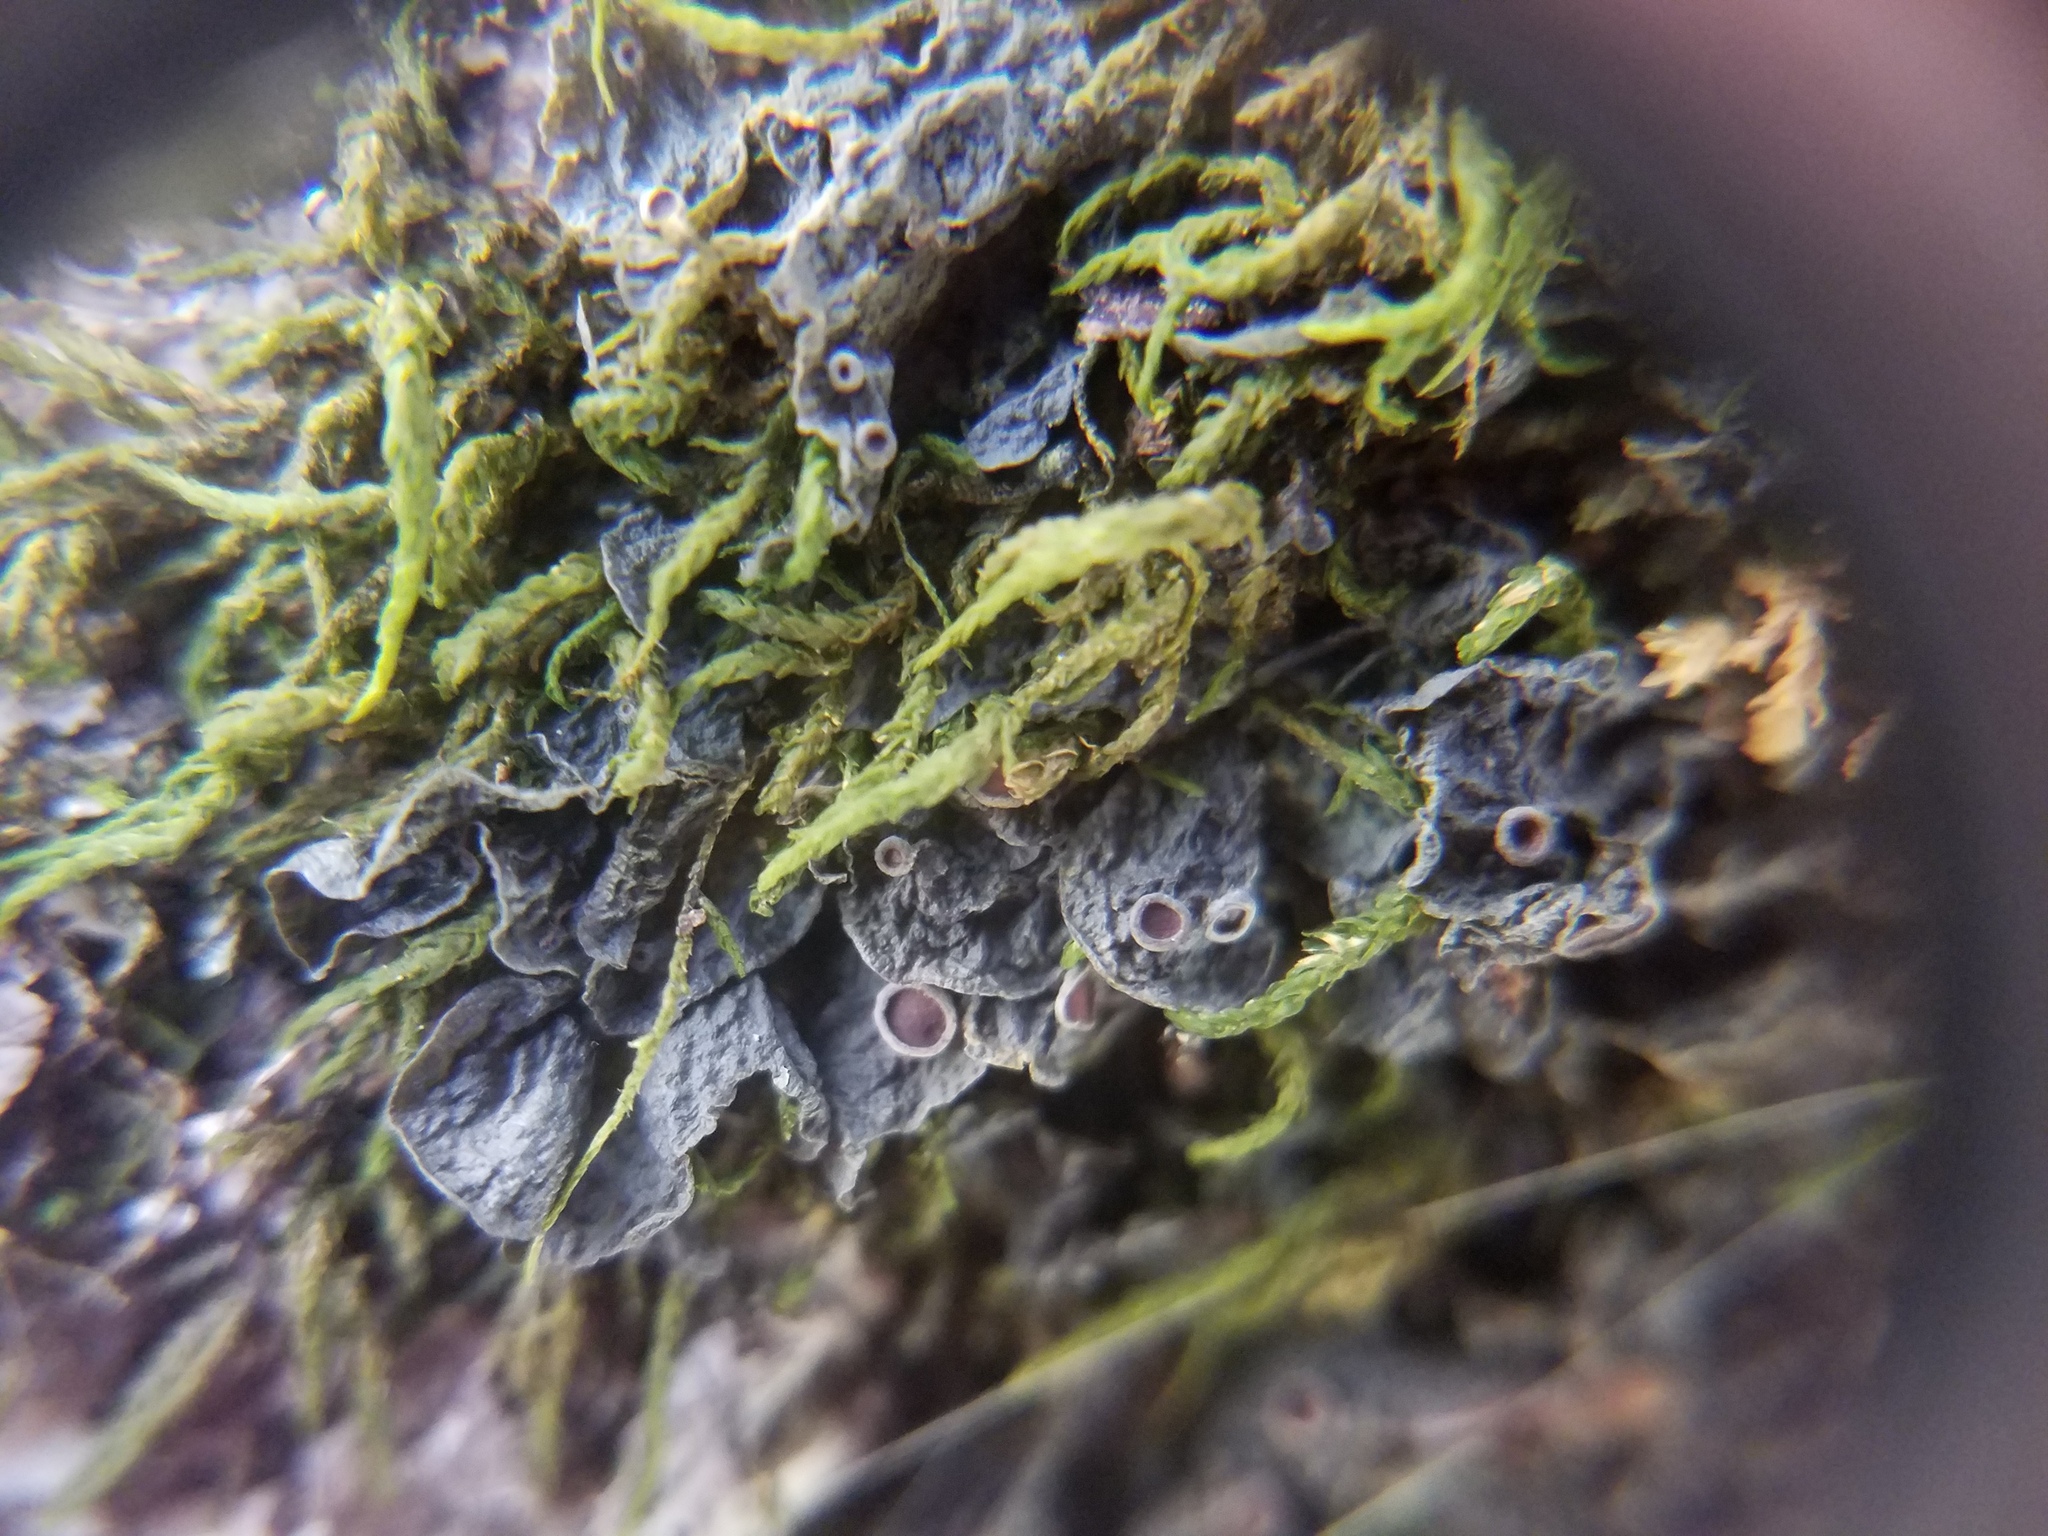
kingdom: Fungi
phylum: Ascomycota
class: Lecanoromycetes
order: Peltigerales
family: Collemataceae
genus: Leptogium
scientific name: Leptogium corticola
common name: Blistered jellyskin lichen
